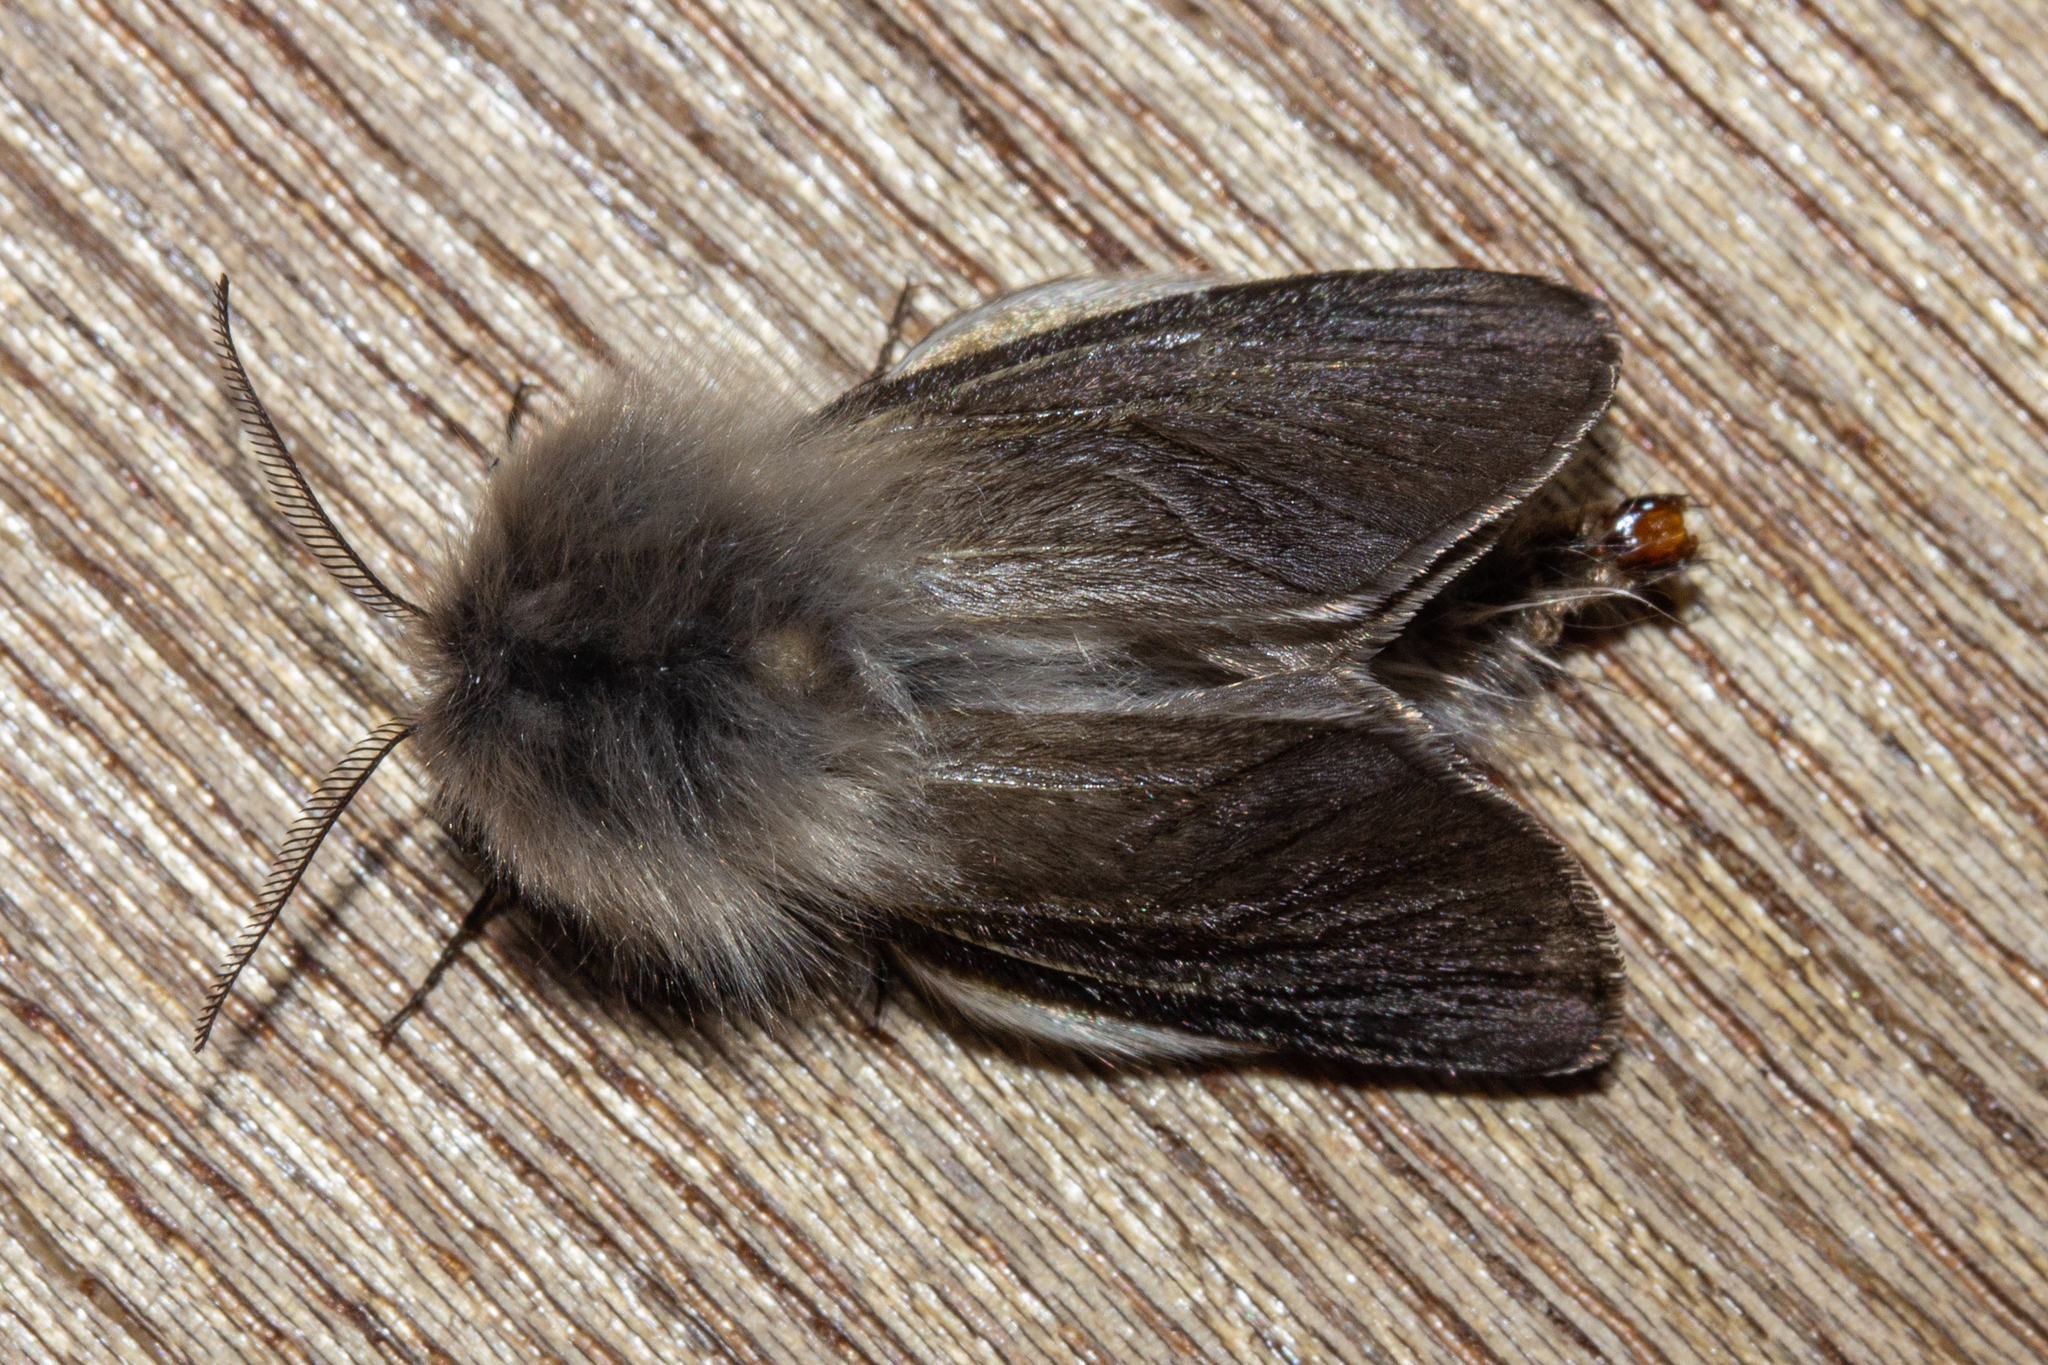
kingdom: Animalia
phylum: Arthropoda
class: Insecta
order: Lepidoptera
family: Psychidae
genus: Orophora
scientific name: Orophora unicolor
